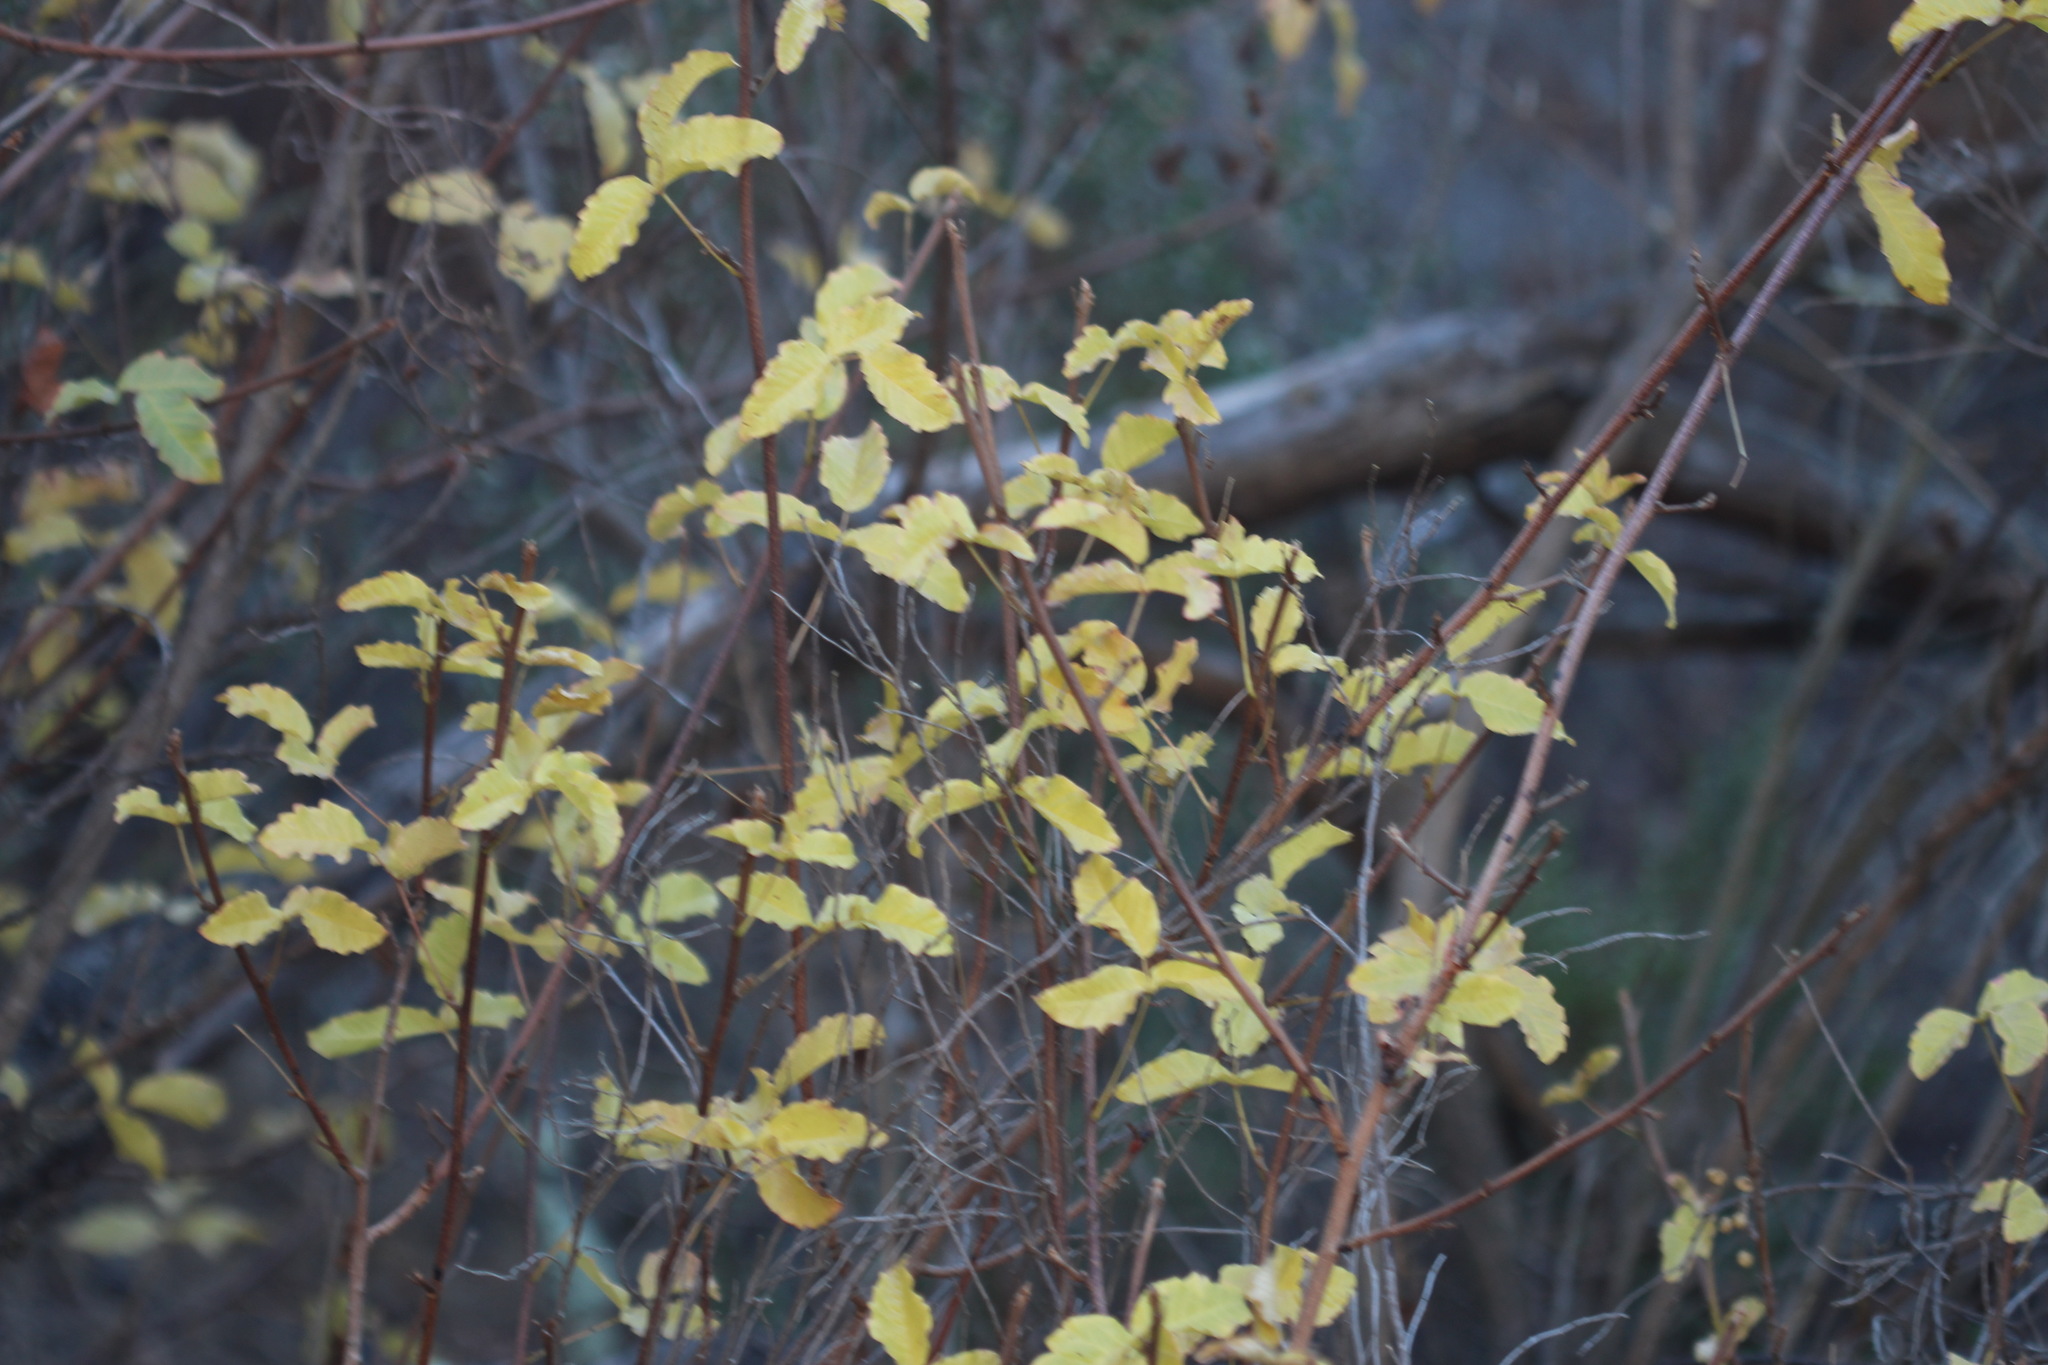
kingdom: Plantae
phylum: Tracheophyta
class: Magnoliopsida
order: Sapindales
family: Anacardiaceae
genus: Toxicodendron
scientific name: Toxicodendron diversilobum
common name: Pacific poison-oak
